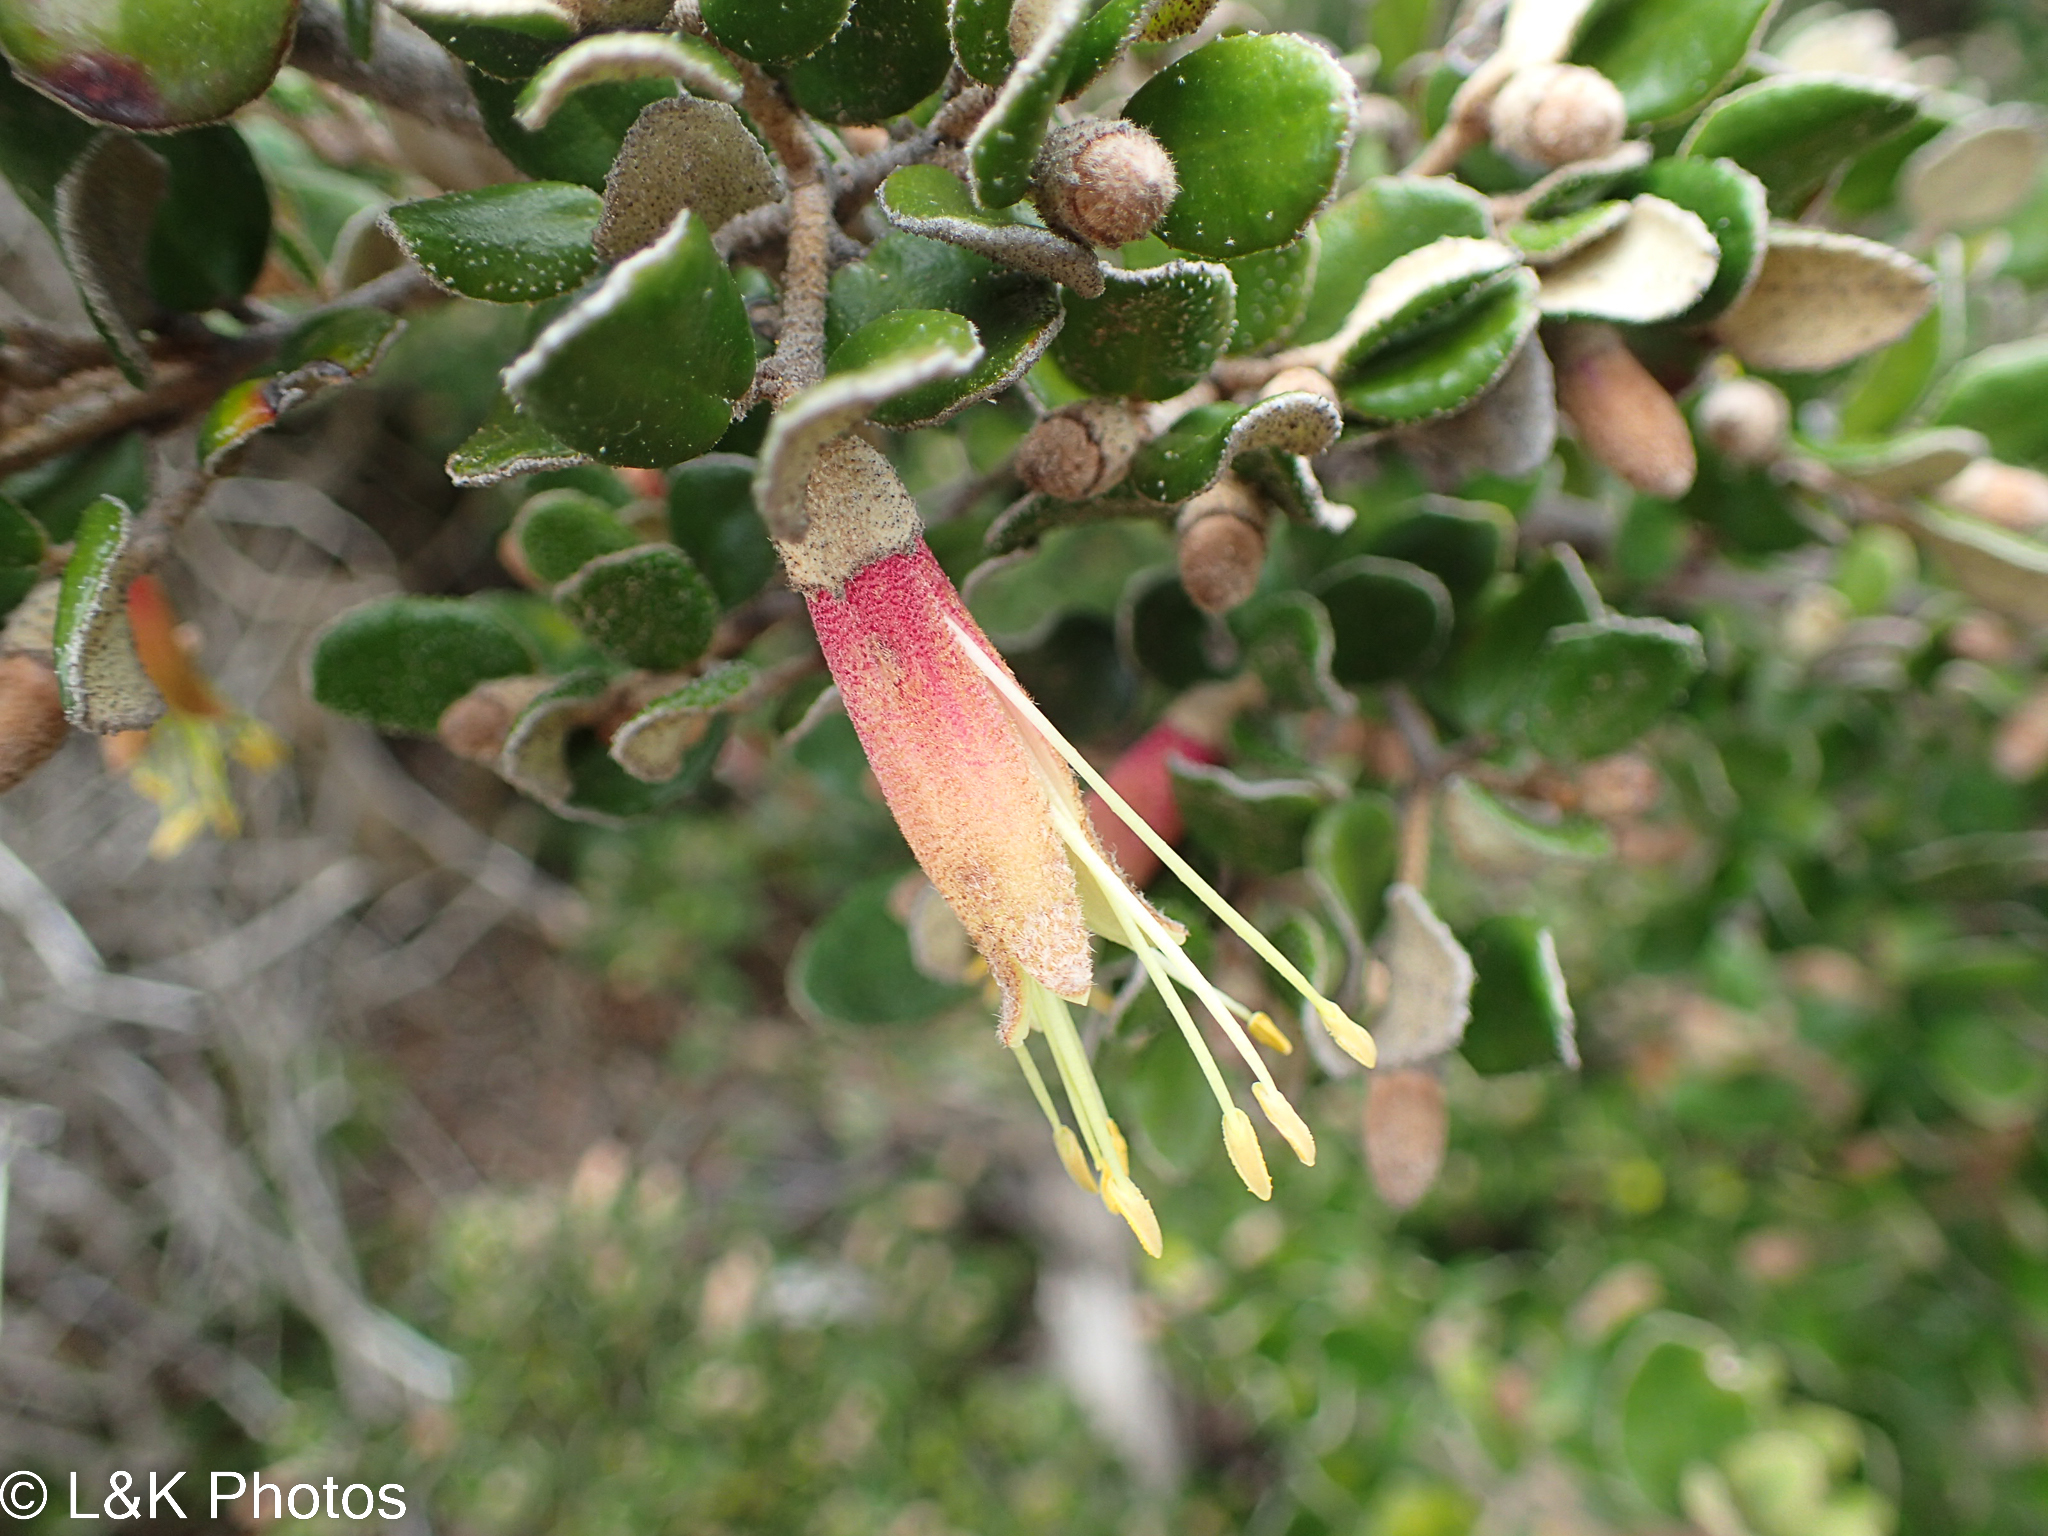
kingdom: Plantae
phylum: Tracheophyta
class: Magnoliopsida
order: Sapindales
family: Rutaceae
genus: Correa
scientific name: Correa backhouseana
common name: Tasmanian-fuchsia
